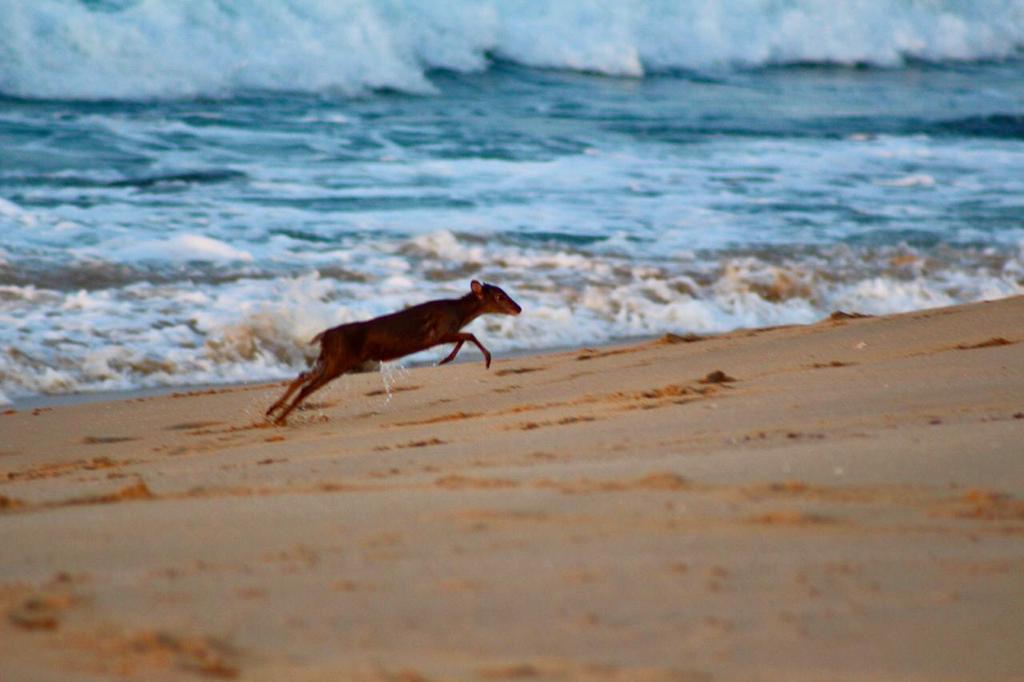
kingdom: Animalia
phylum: Chordata
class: Mammalia
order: Artiodactyla
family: Bovidae
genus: Philantomba
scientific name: Philantomba monticola
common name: Blue duiker
